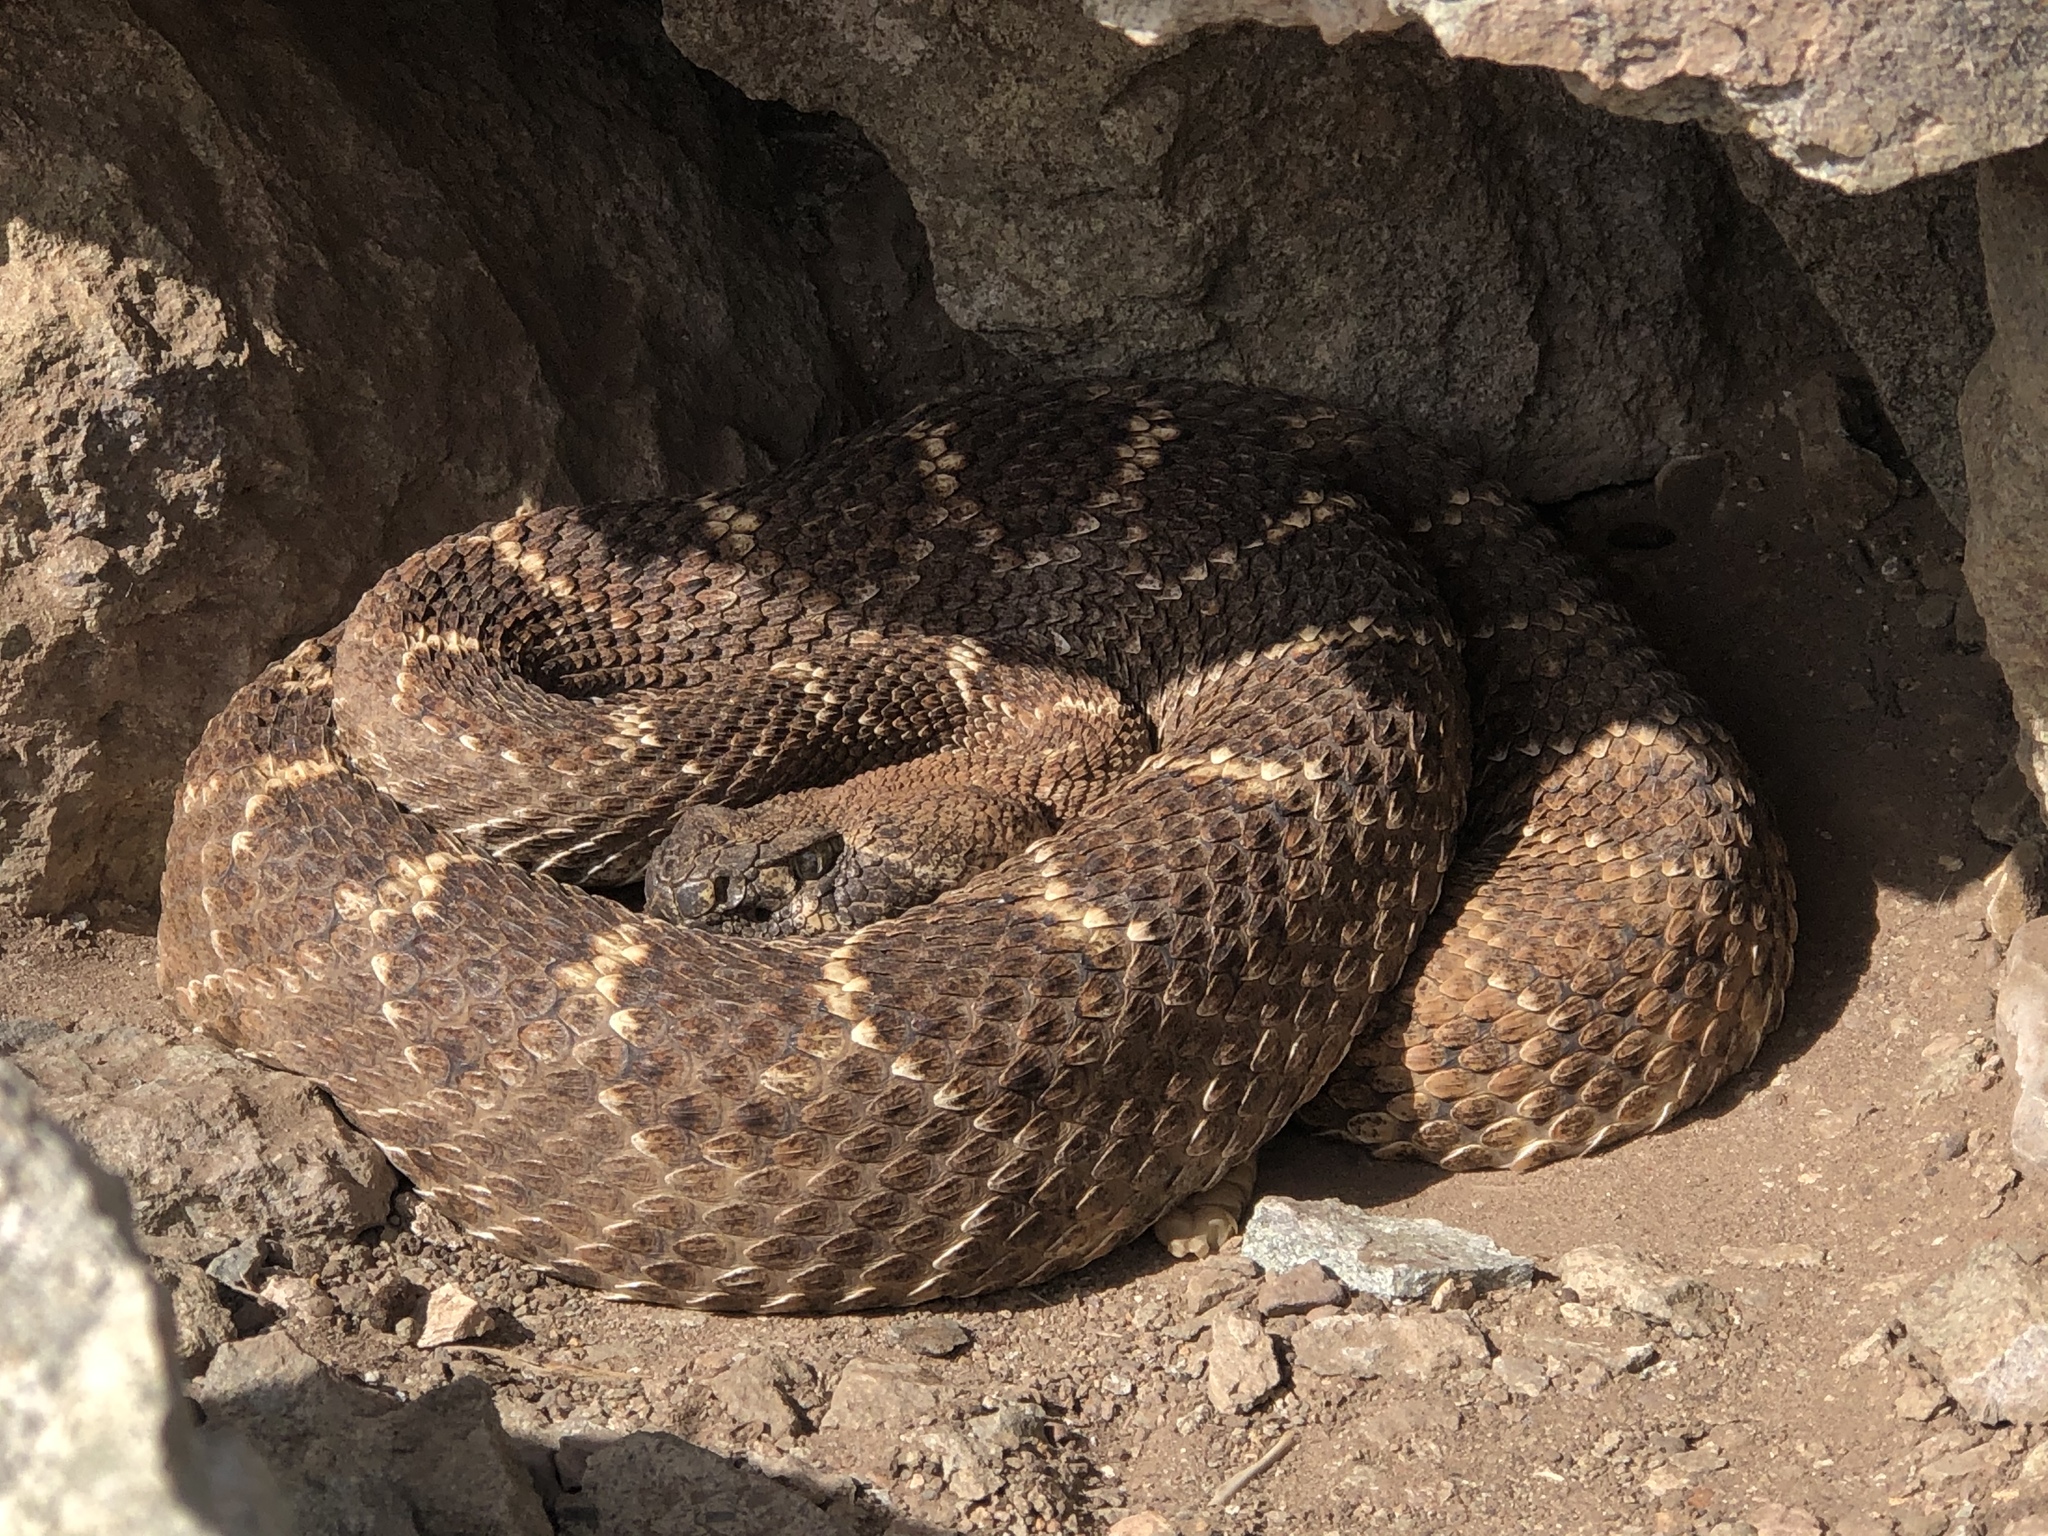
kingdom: Animalia
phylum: Chordata
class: Squamata
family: Viperidae
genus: Crotalus
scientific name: Crotalus atrox
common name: Western diamond-backed rattlesnake
